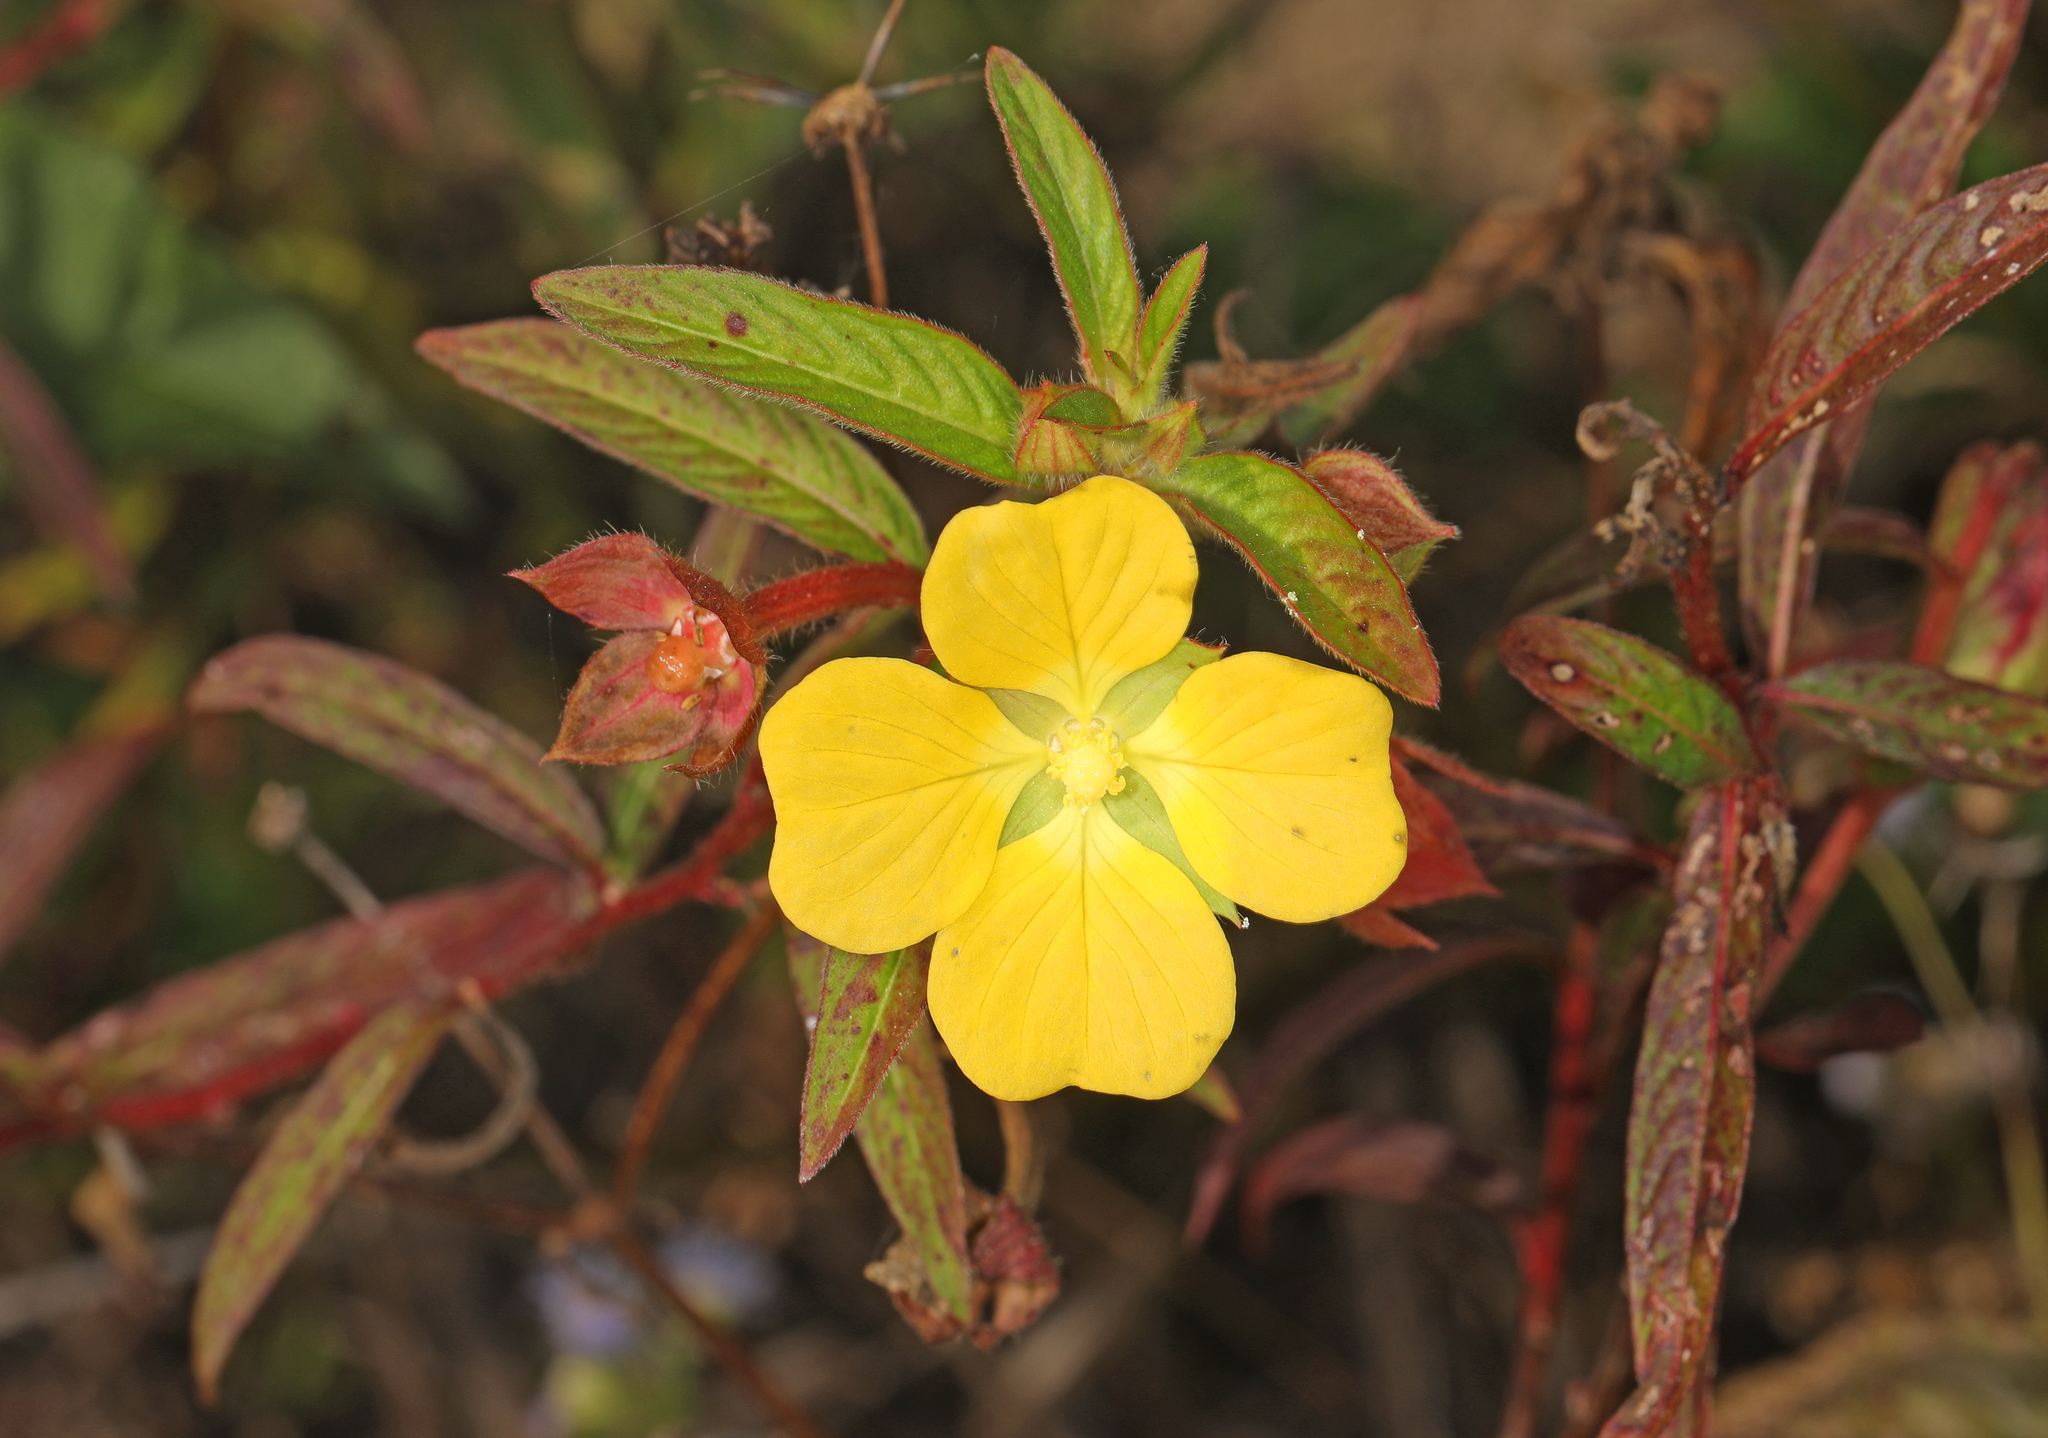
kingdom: Plantae
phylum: Tracheophyta
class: Magnoliopsida
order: Myrtales
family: Onagraceae
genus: Ludwigia
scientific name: Ludwigia octovalvis
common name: Water-primrose
